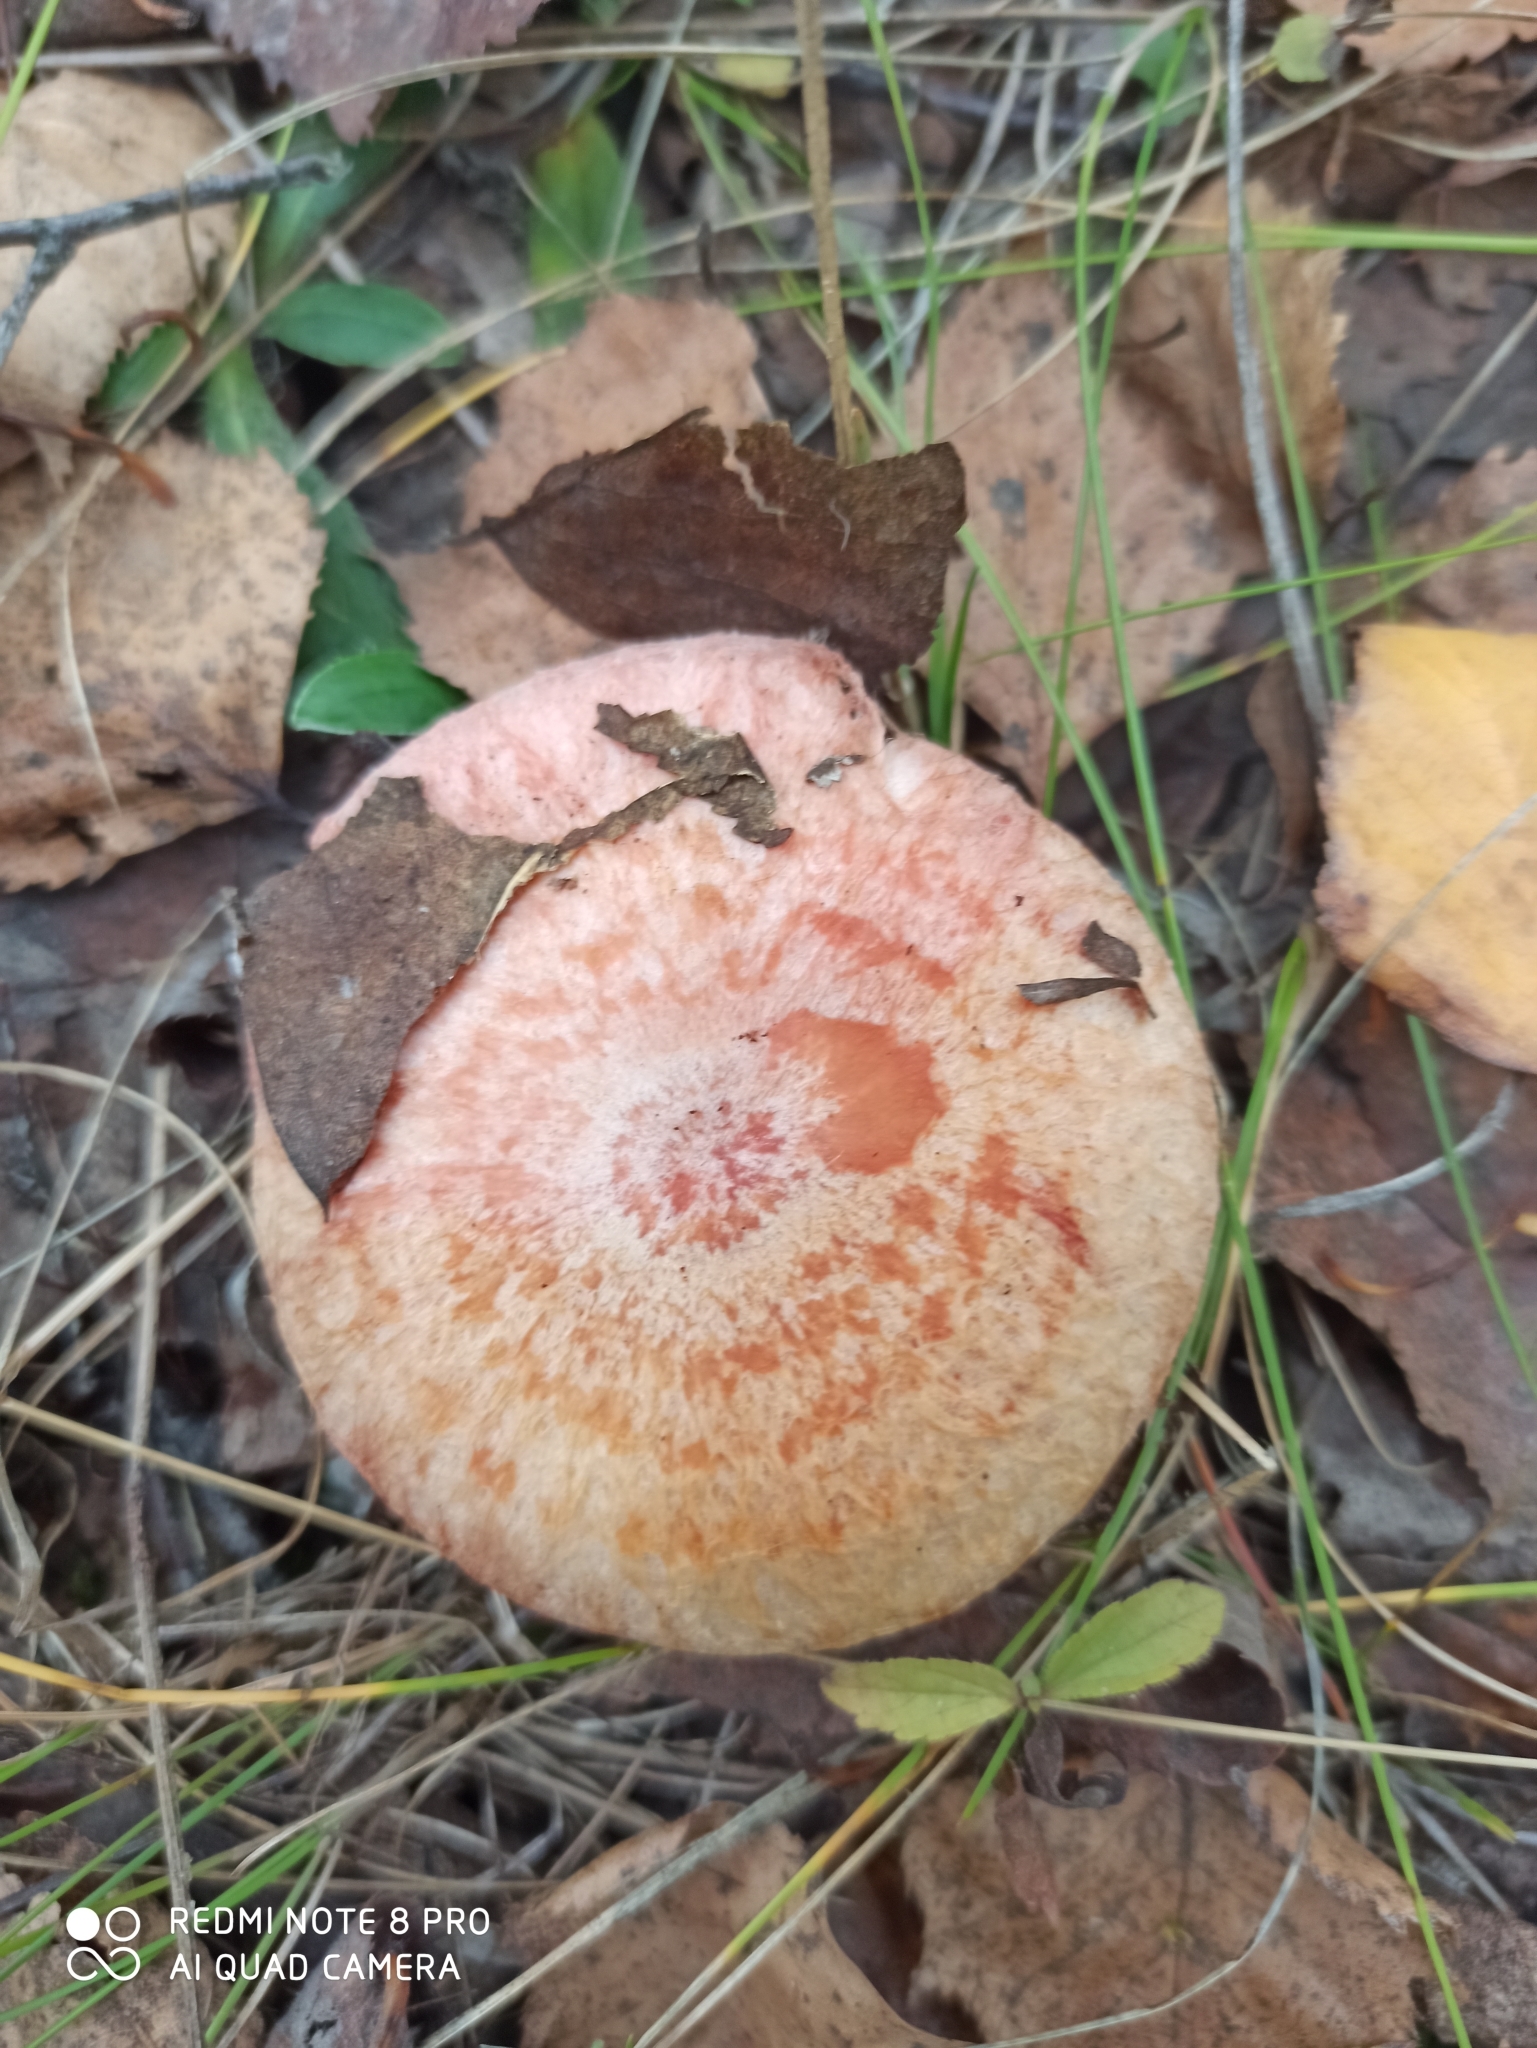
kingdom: Fungi
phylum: Basidiomycota
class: Agaricomycetes
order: Russulales
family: Russulaceae
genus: Lactarius
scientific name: Lactarius torminosus
